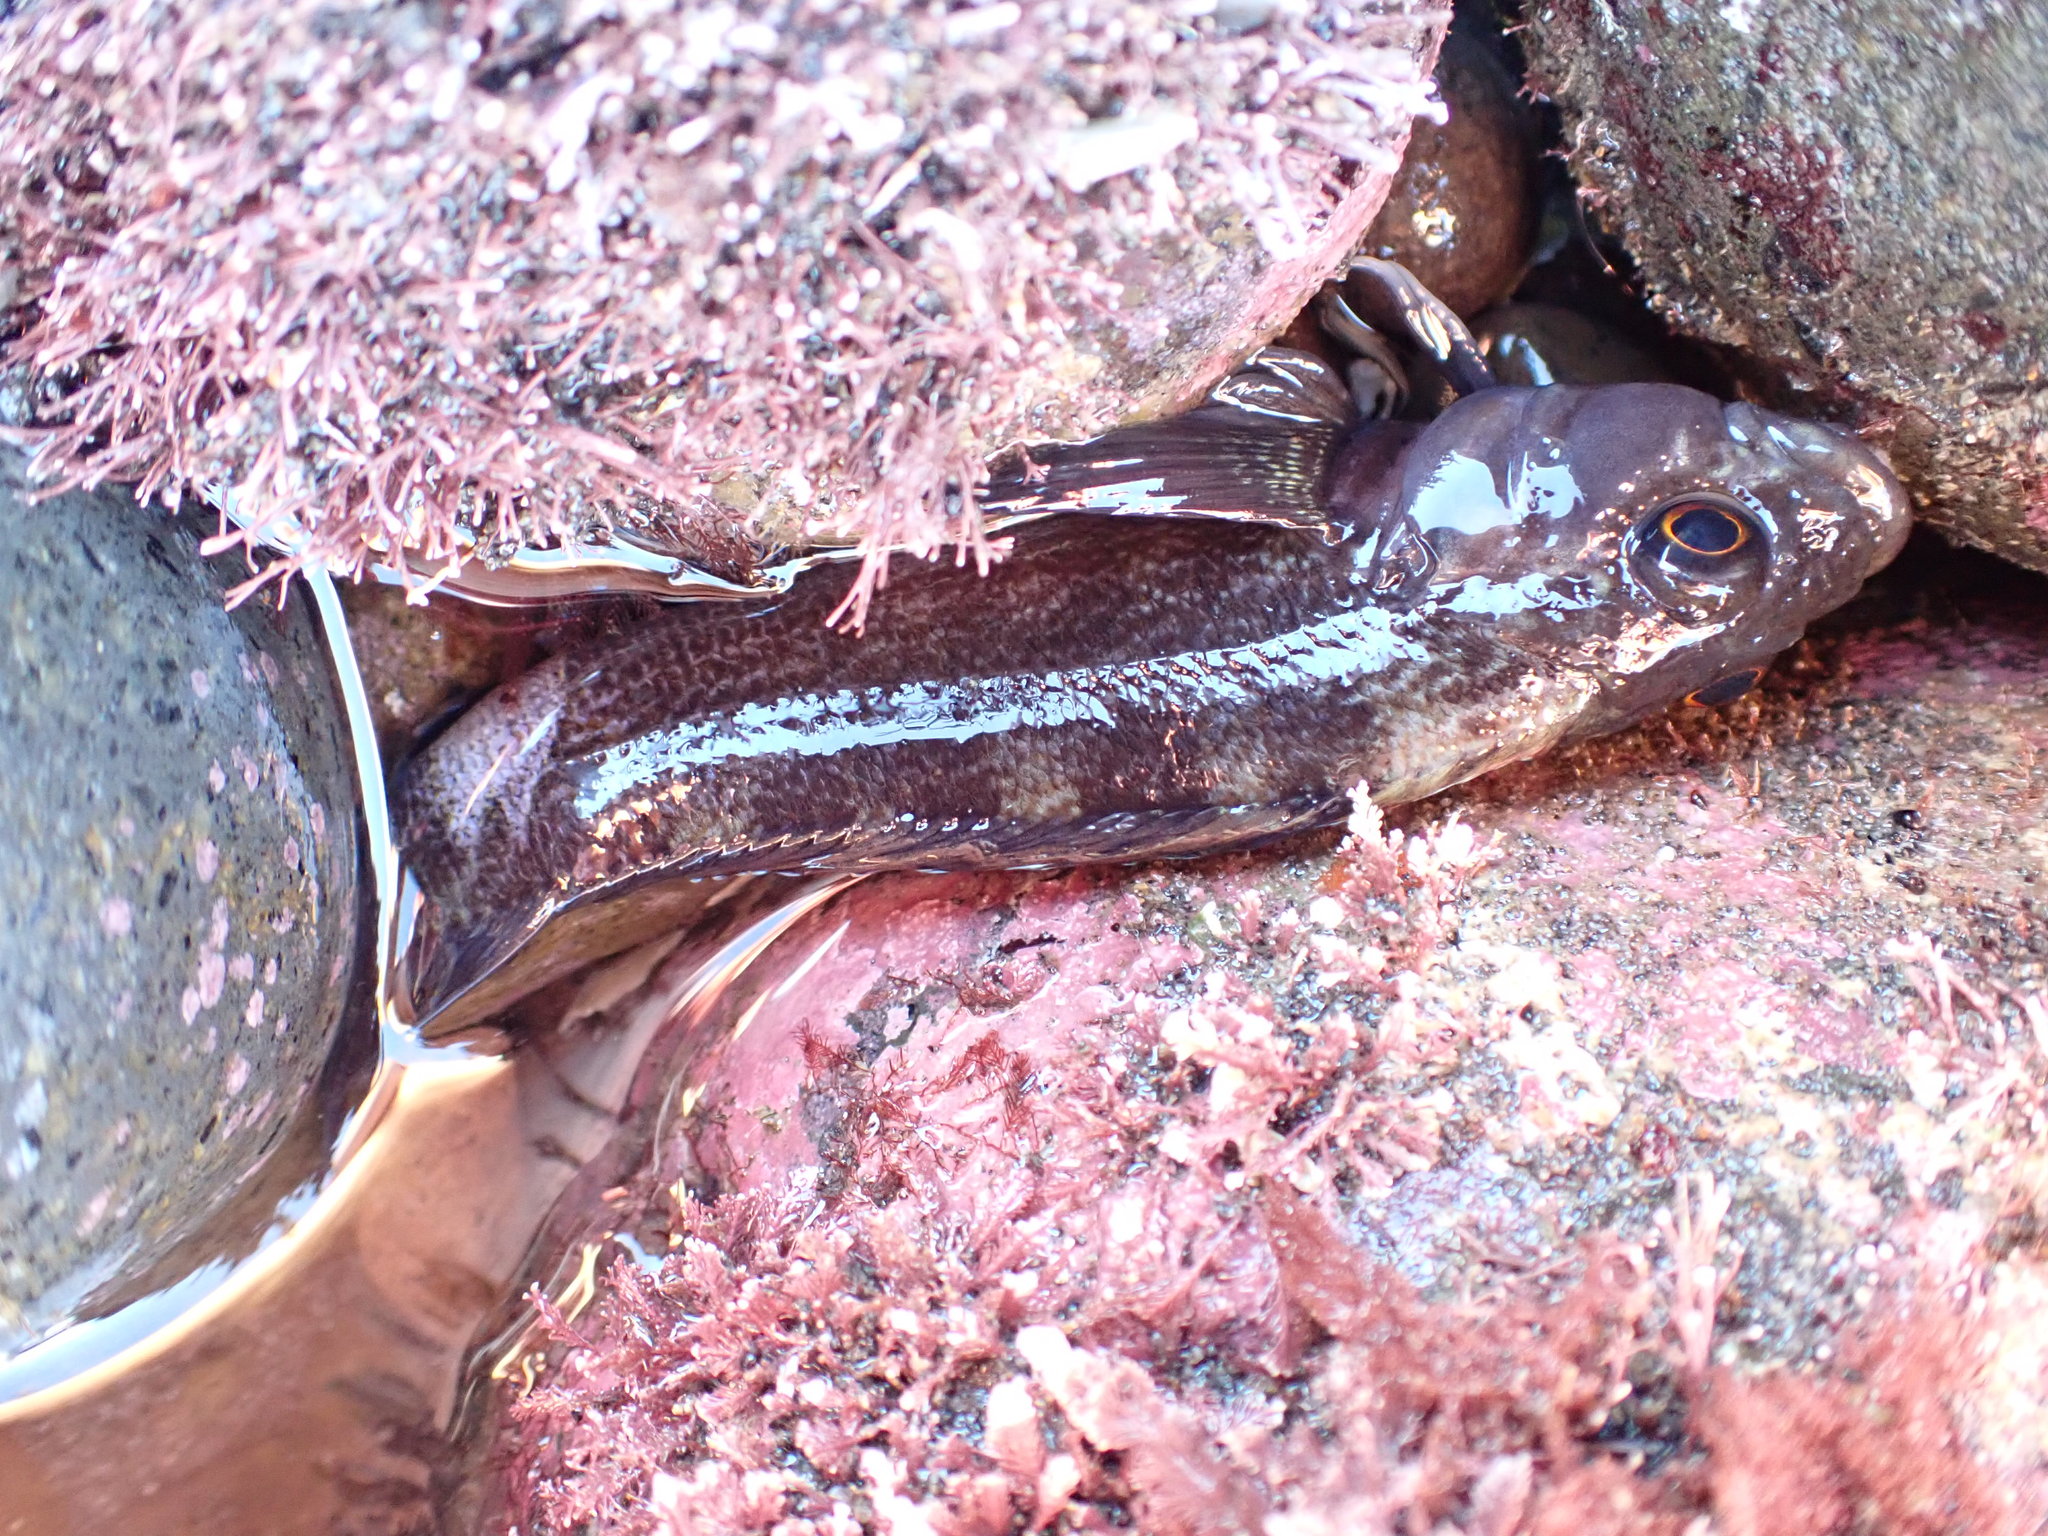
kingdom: Animalia
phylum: Chordata
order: Perciformes
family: Tripterygiidae
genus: Forsterygion
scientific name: Forsterygion varium
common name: Variable triplefin
